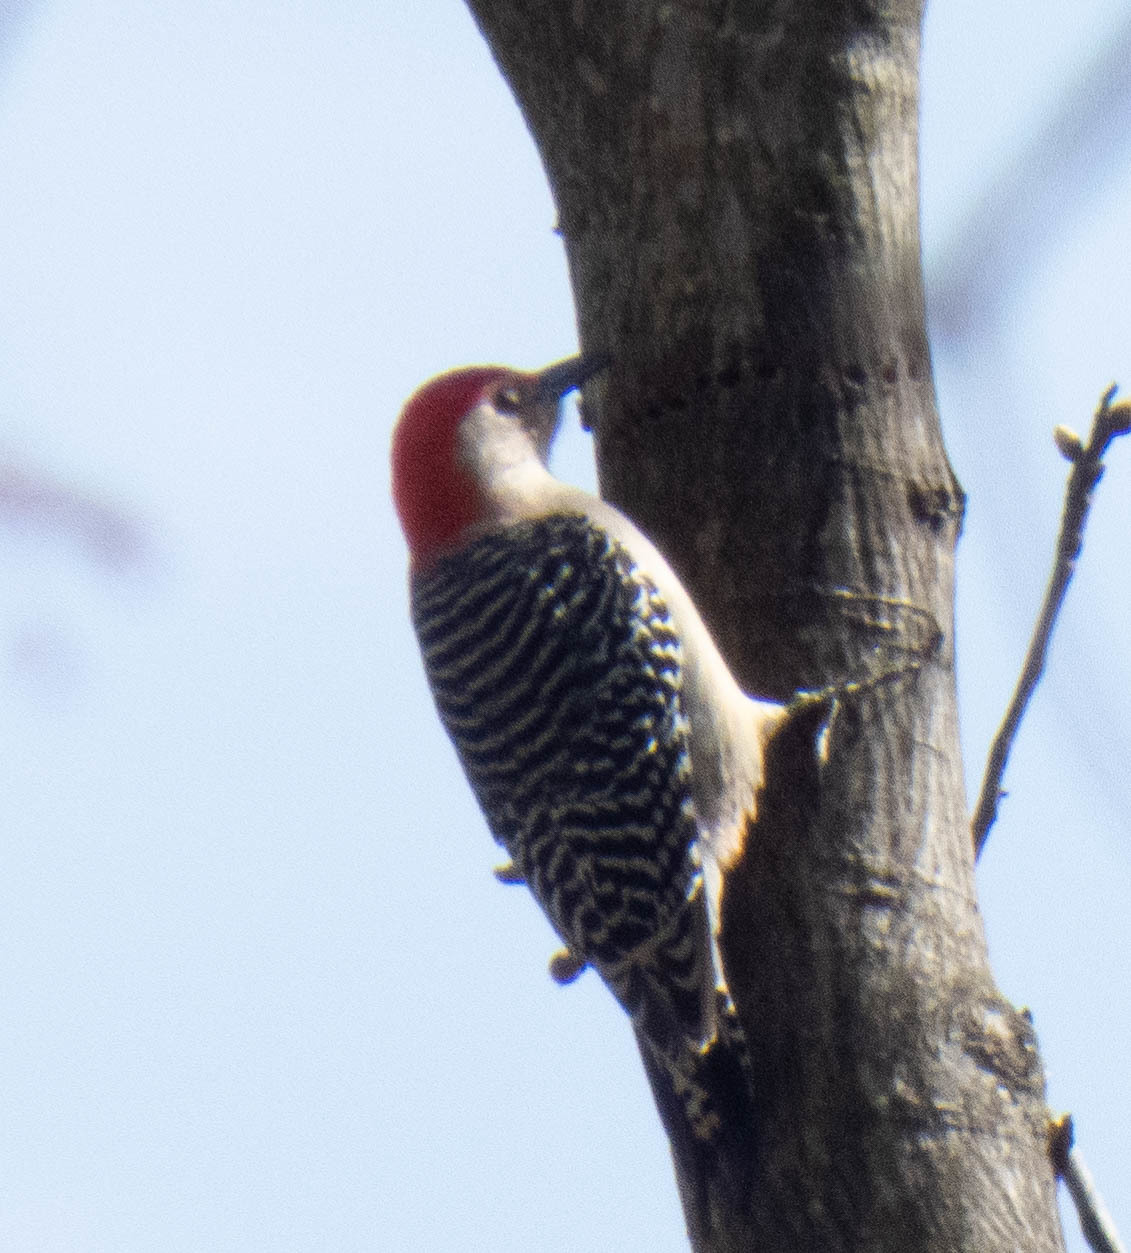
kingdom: Animalia
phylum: Chordata
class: Aves
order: Piciformes
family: Picidae
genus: Melanerpes
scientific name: Melanerpes carolinus
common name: Red-bellied woodpecker
